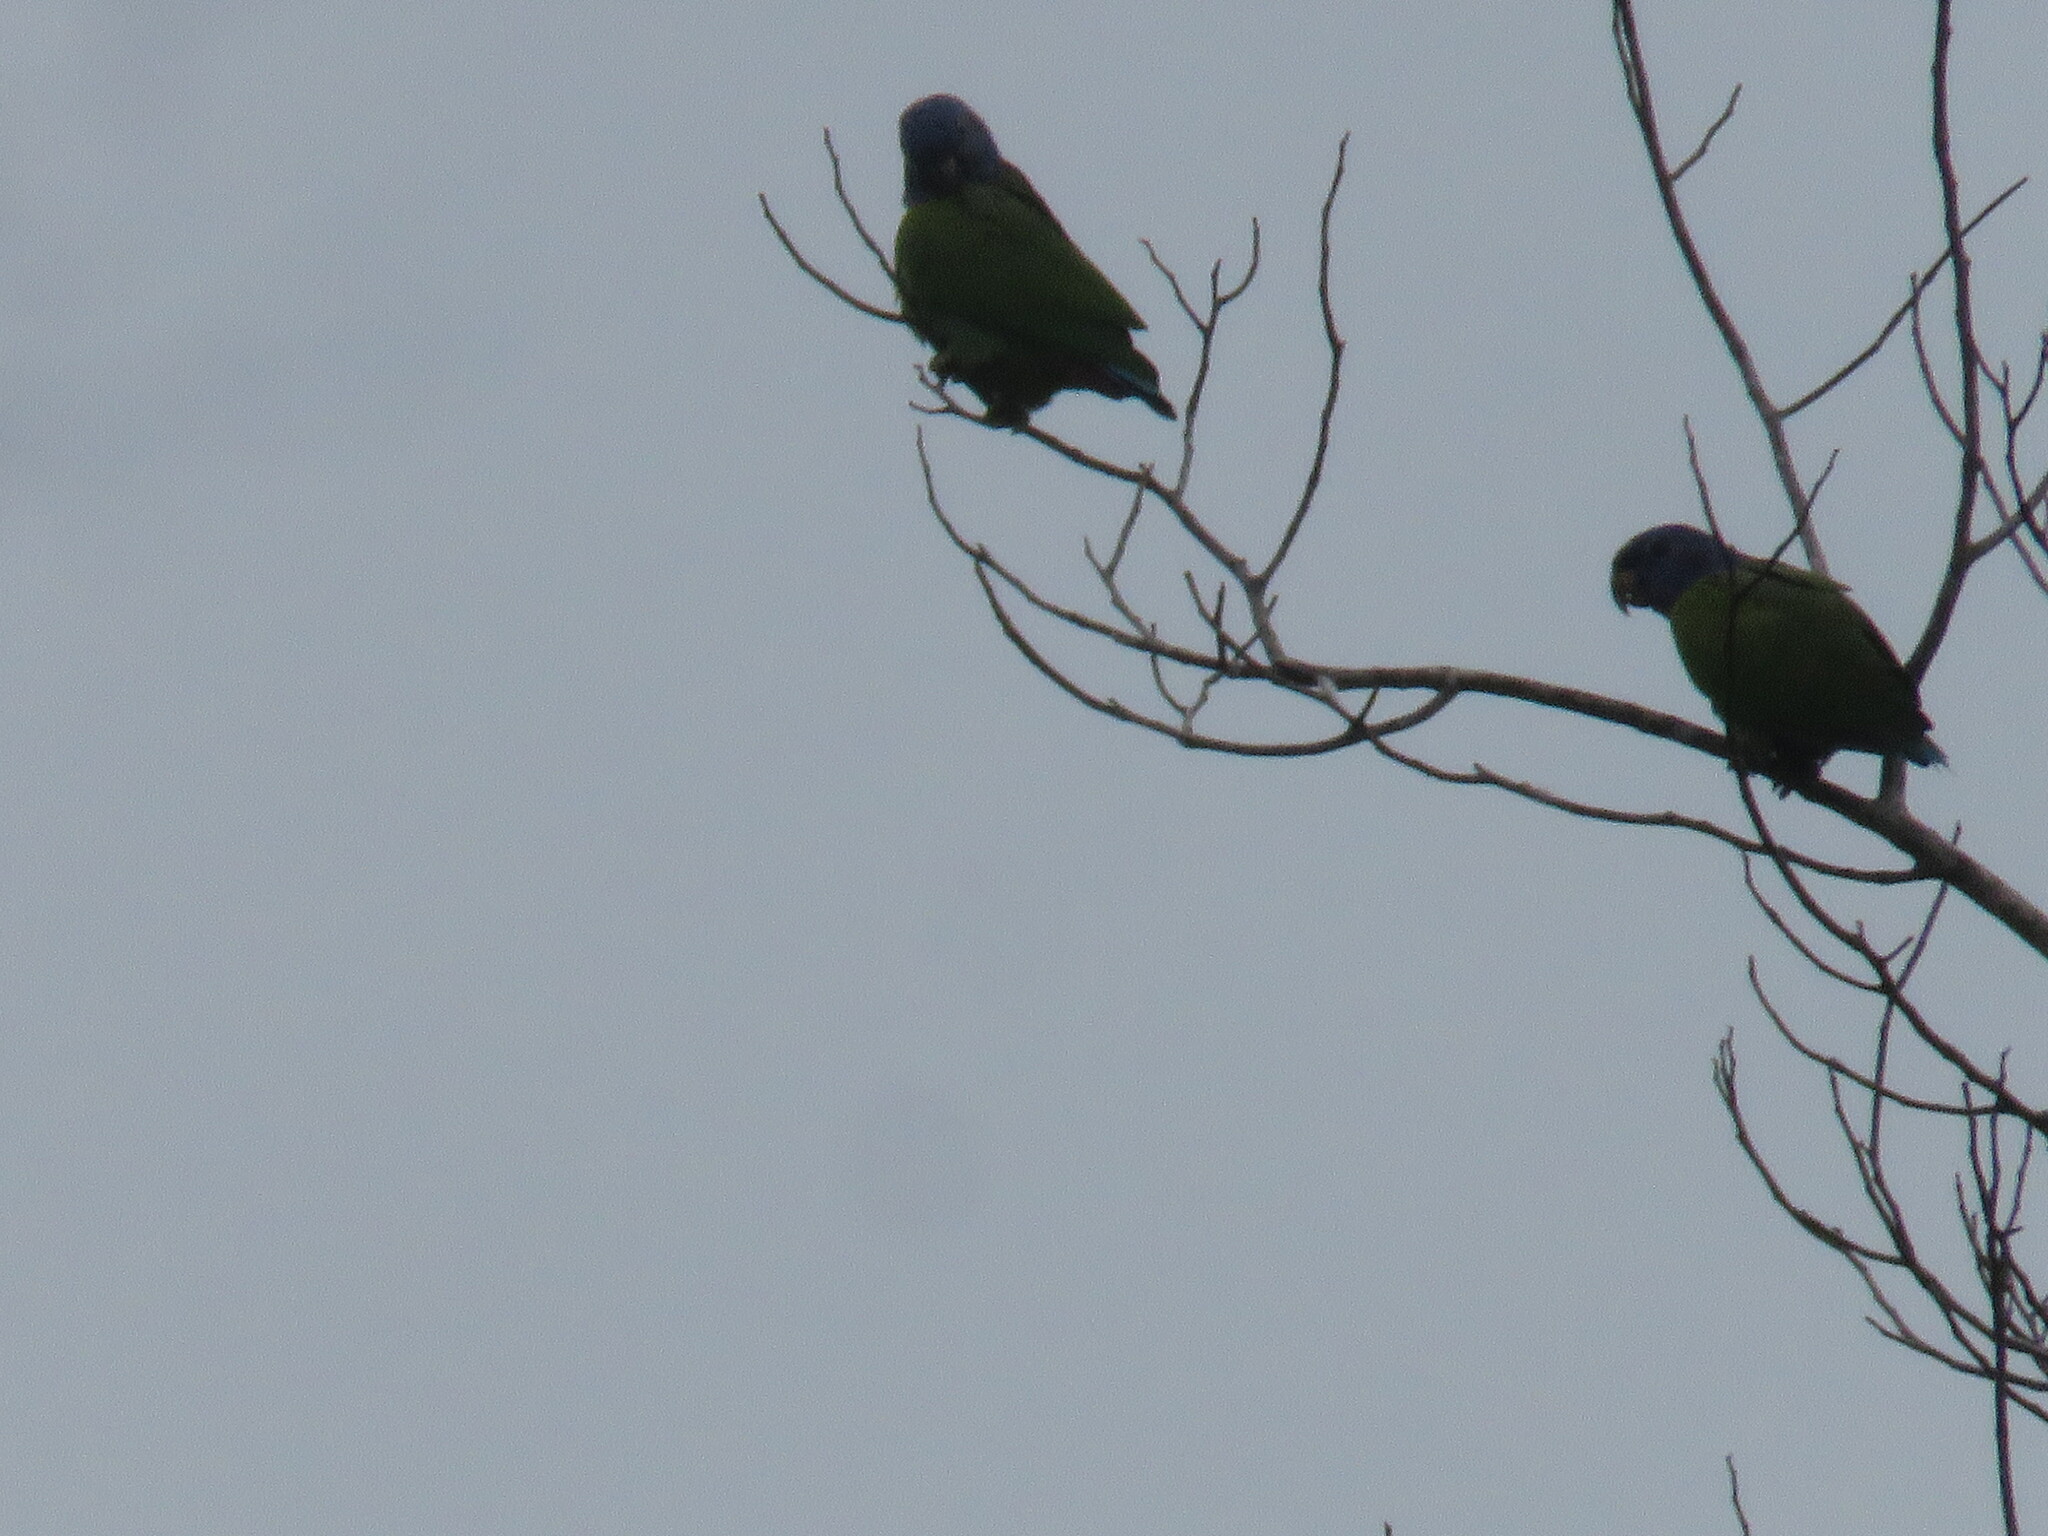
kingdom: Animalia
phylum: Chordata
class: Aves
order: Psittaciformes
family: Psittacidae
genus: Pionus
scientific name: Pionus menstruus
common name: Blue-headed parrot
